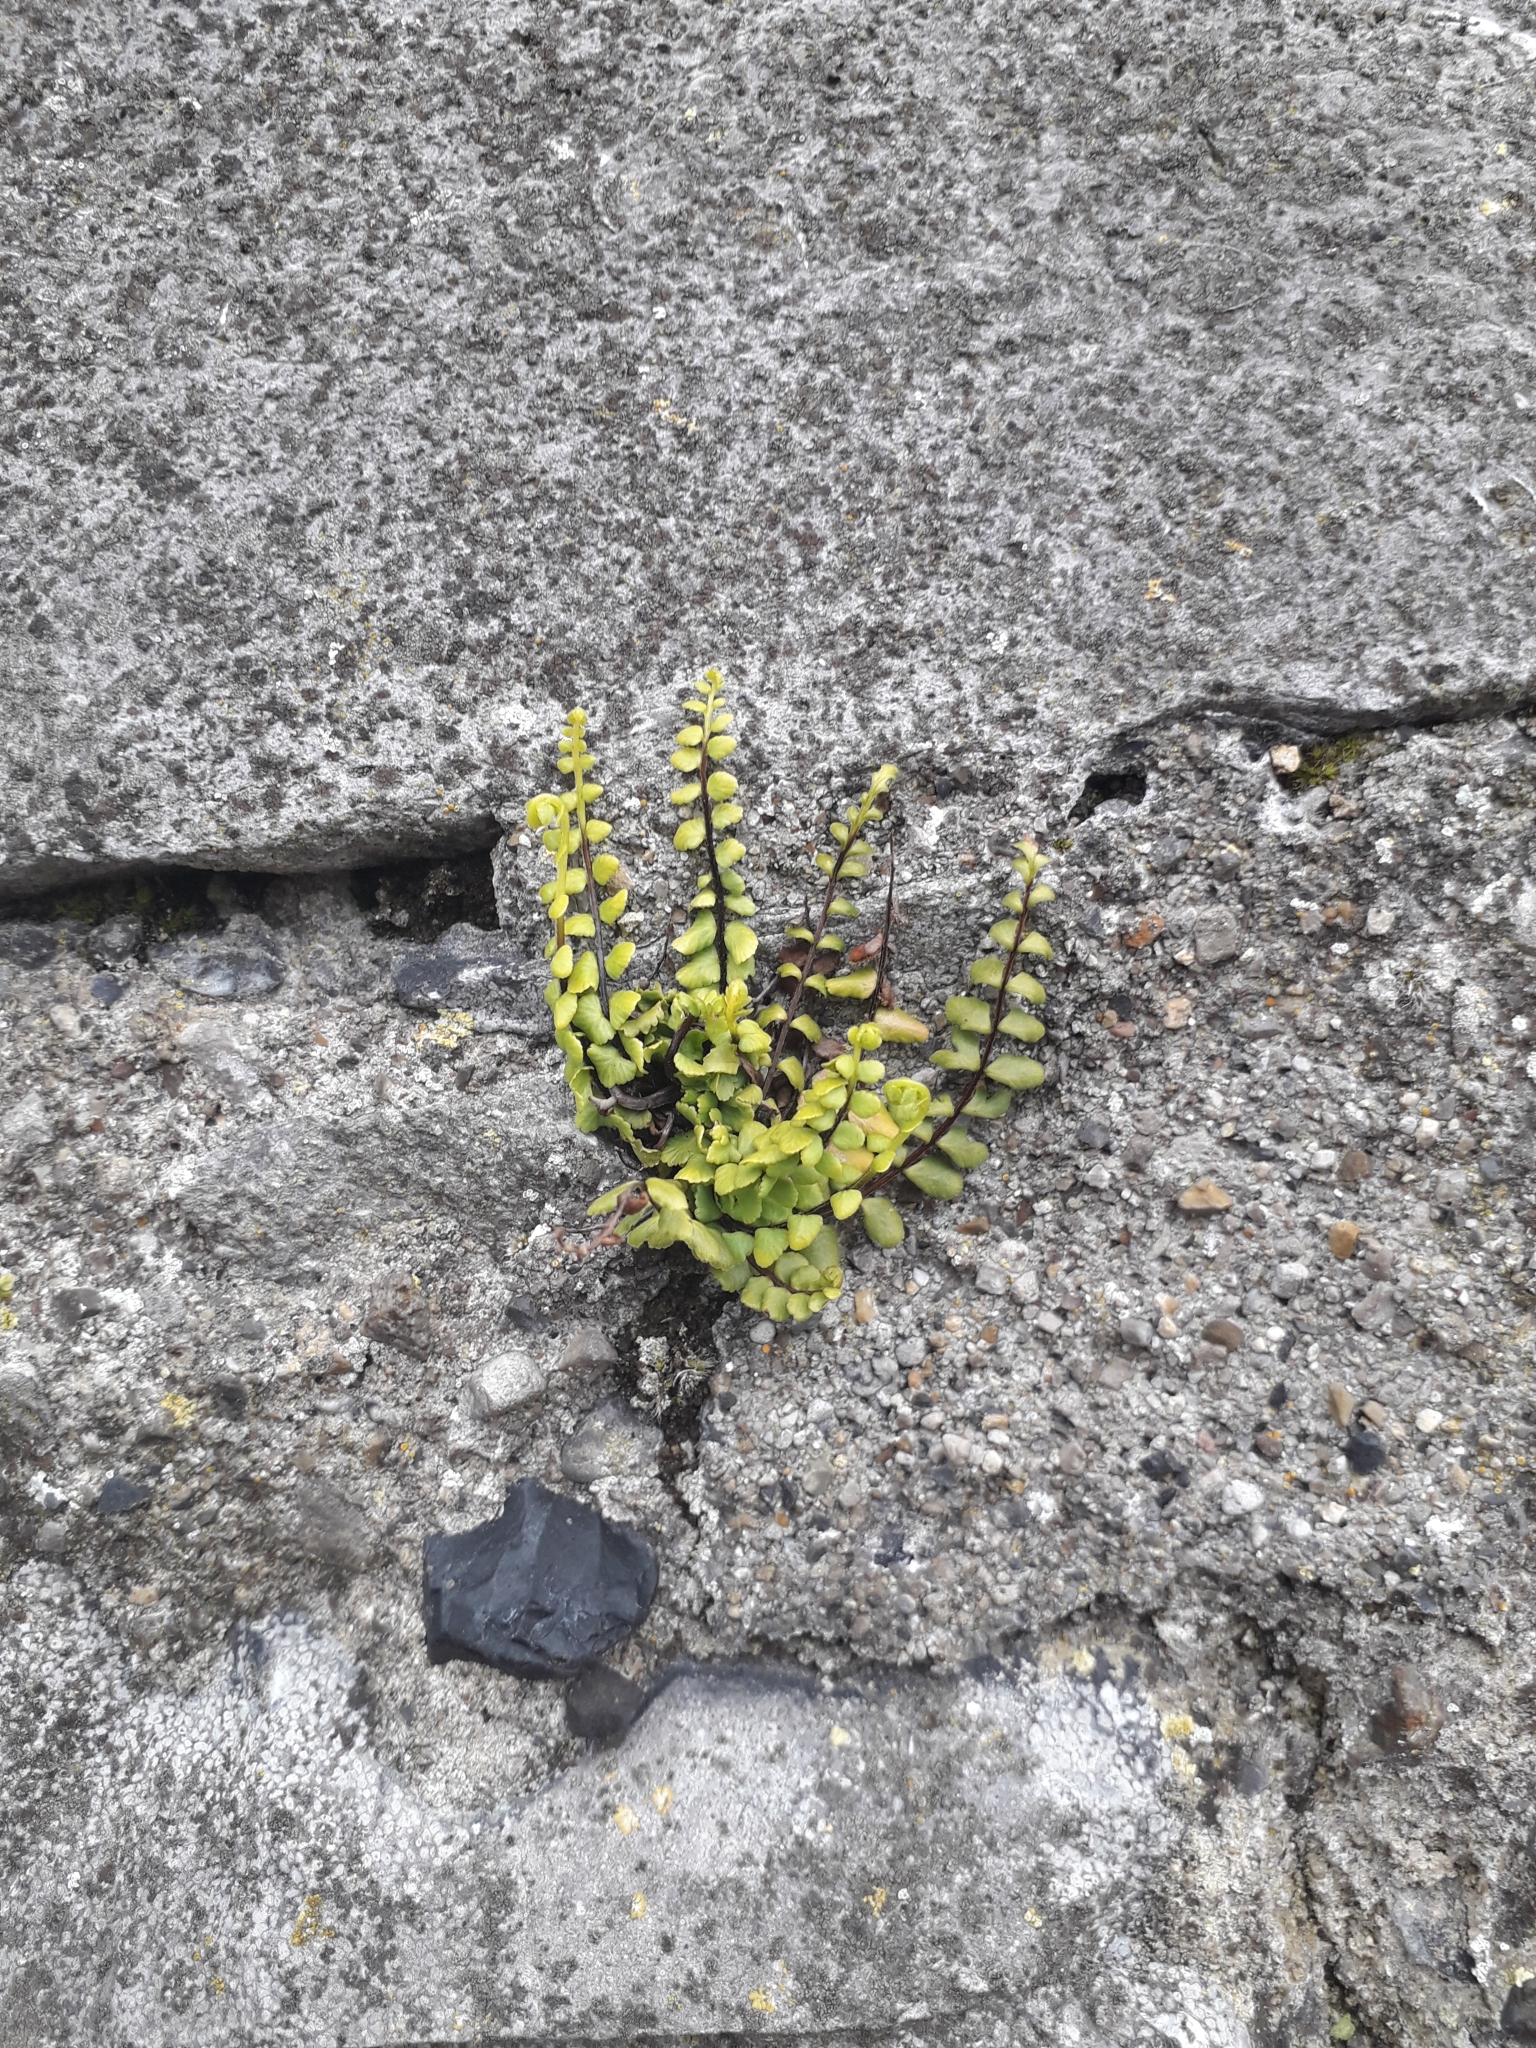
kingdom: Plantae
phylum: Tracheophyta
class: Polypodiopsida
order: Polypodiales
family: Aspleniaceae
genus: Asplenium
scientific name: Asplenium trichomanes
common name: Maidenhair spleenwort
